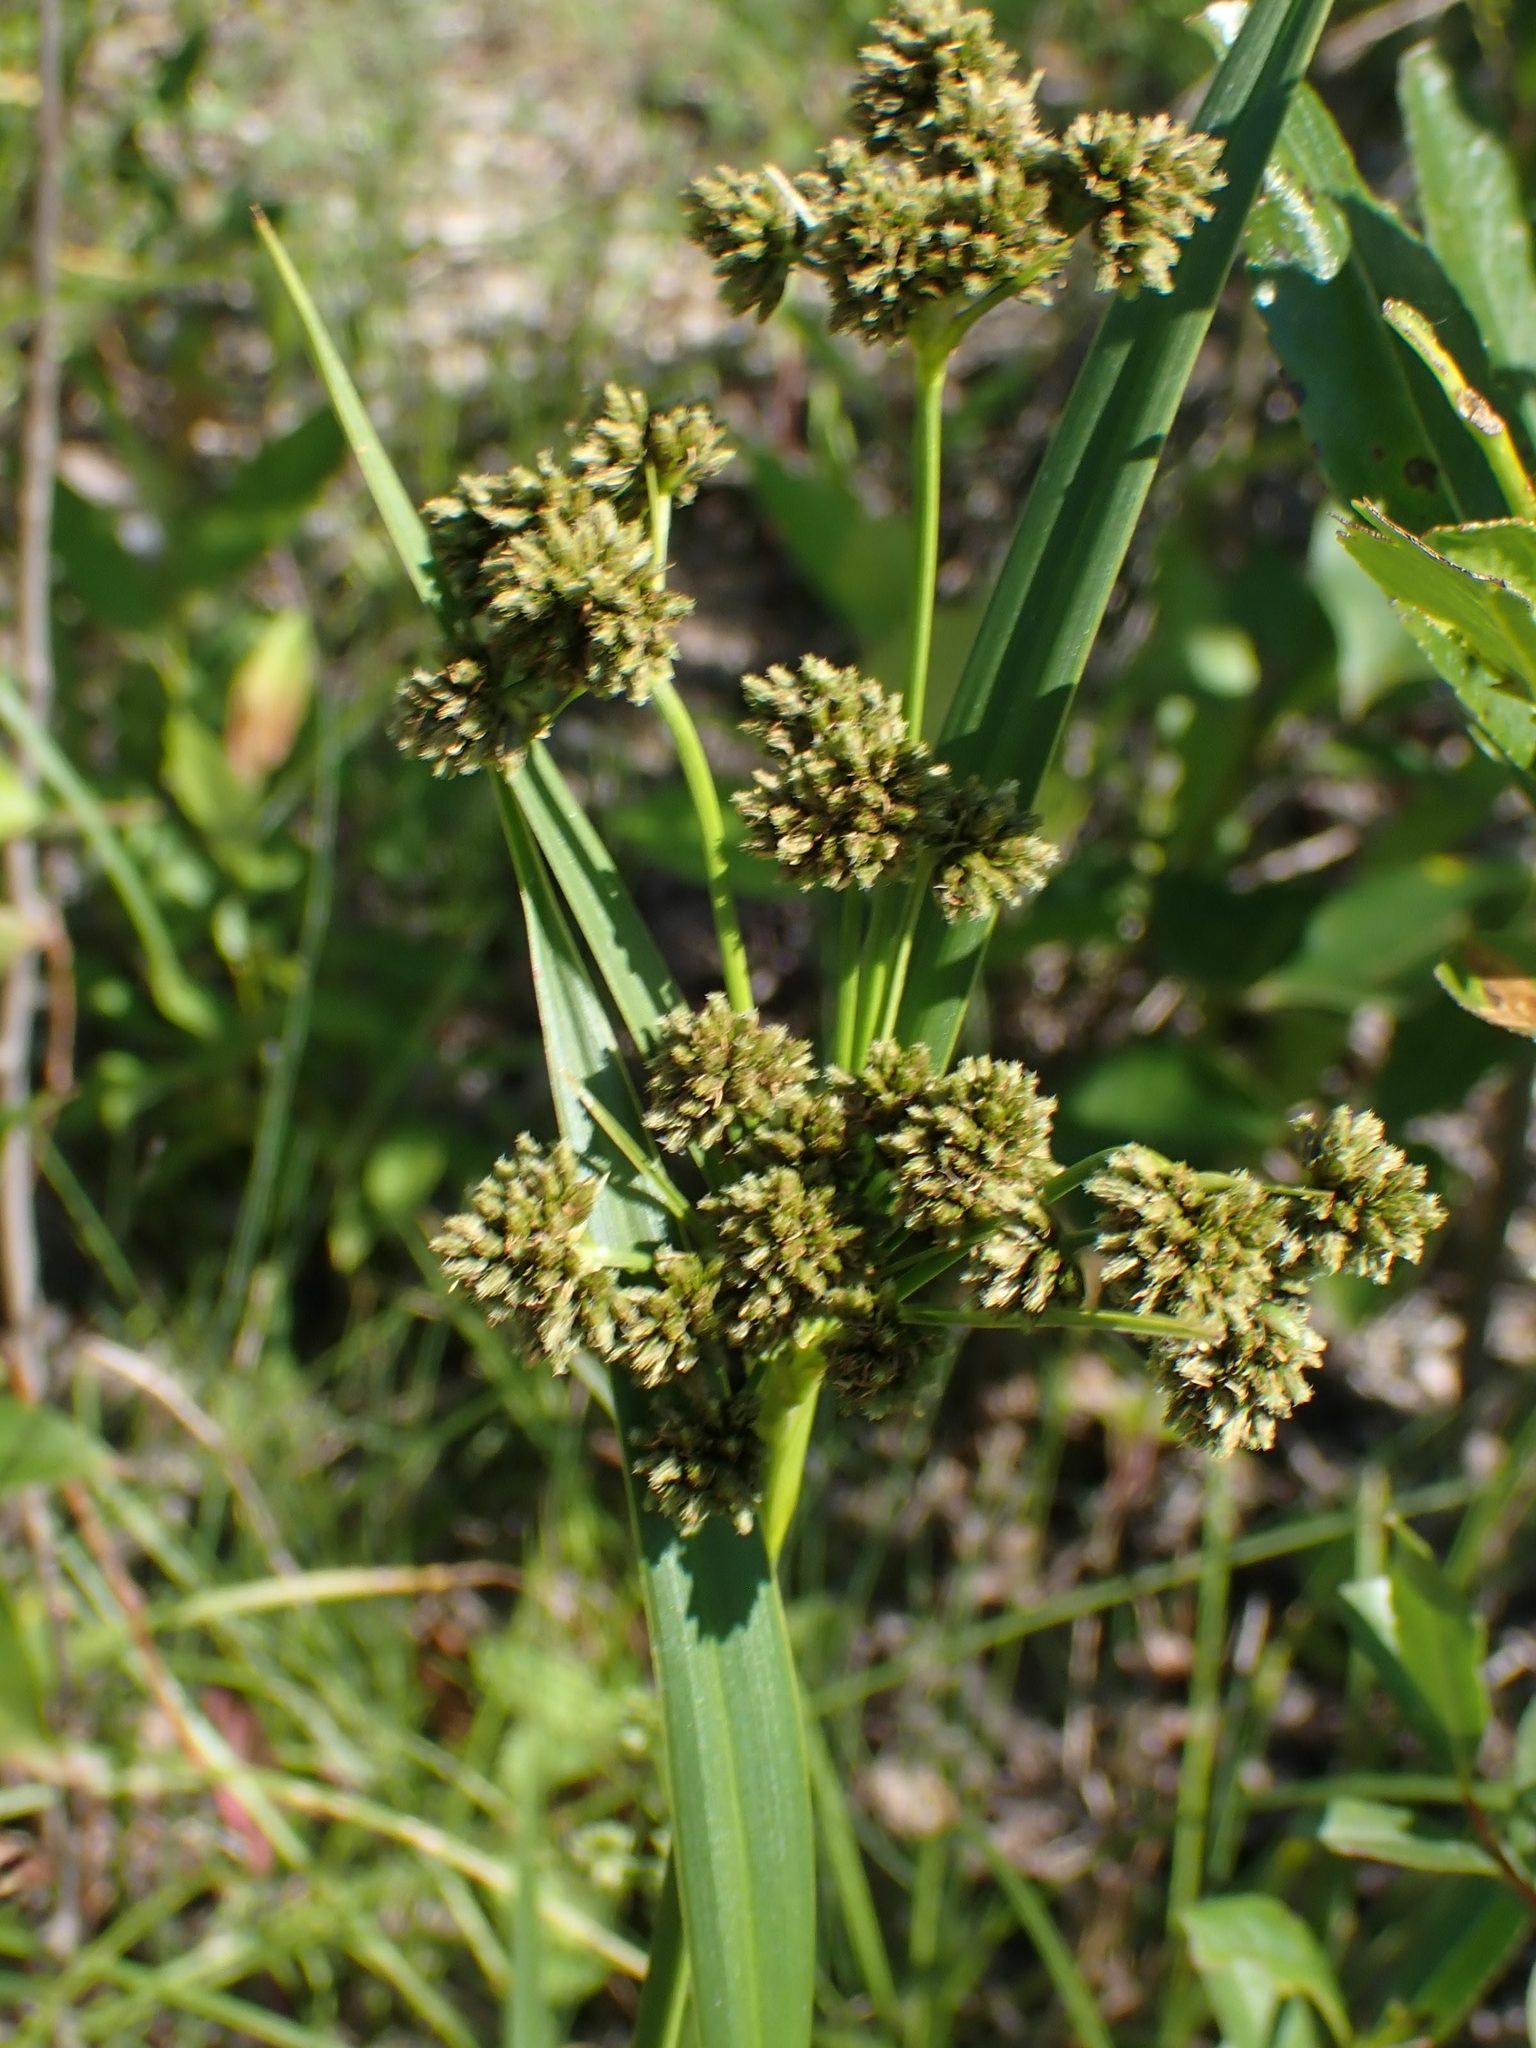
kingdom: Plantae
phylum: Tracheophyta
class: Liliopsida
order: Poales
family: Cyperaceae
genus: Scirpus
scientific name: Scirpus atrovirens
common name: Black bulrush
